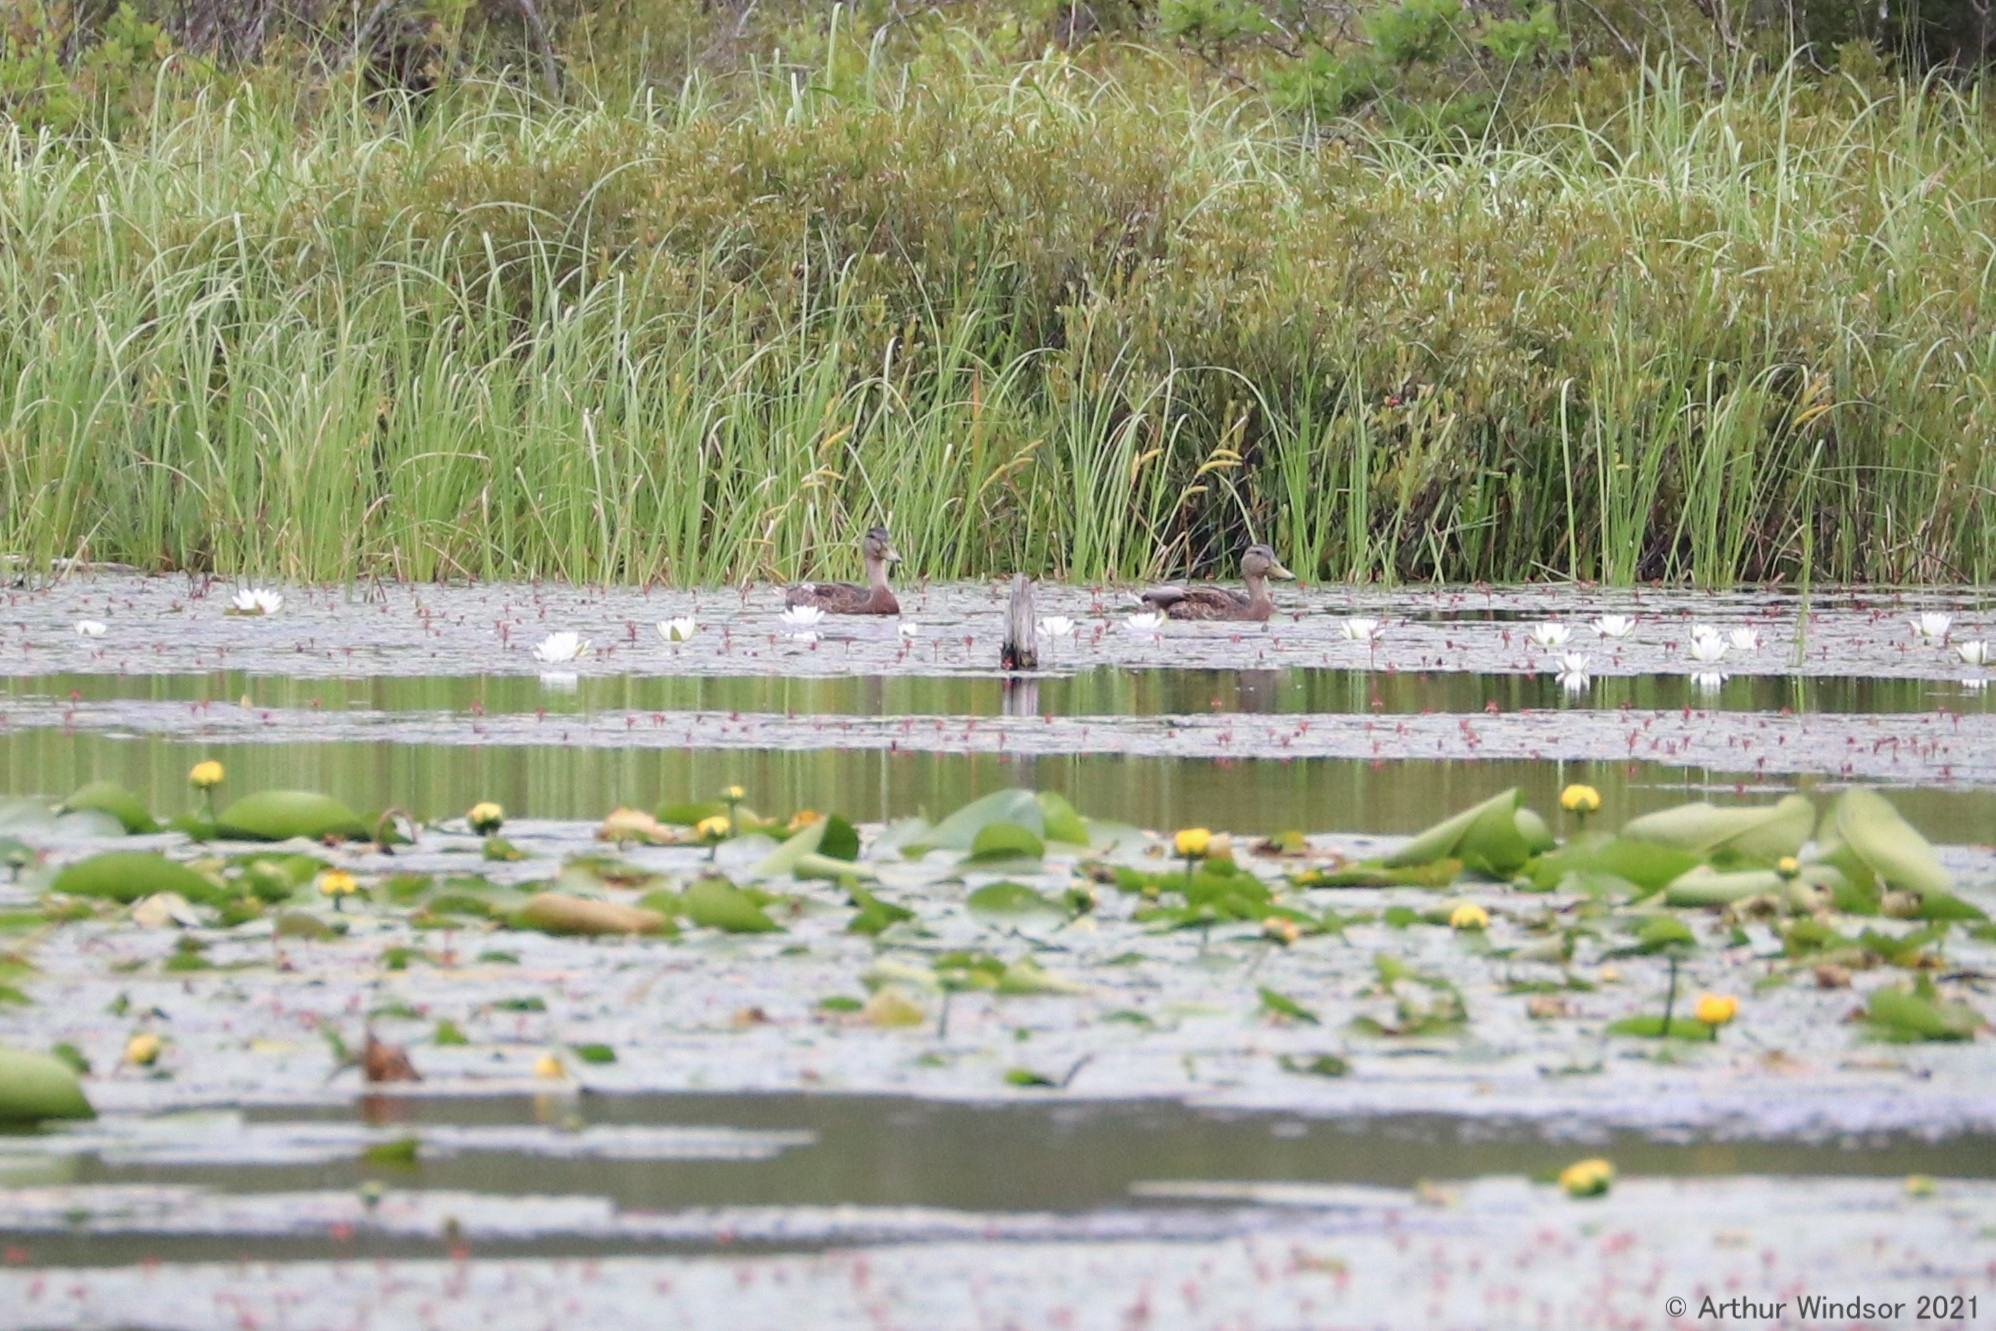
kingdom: Animalia
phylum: Chordata
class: Aves
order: Anseriformes
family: Anatidae
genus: Anas
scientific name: Anas platyrhynchos
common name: Mallard
